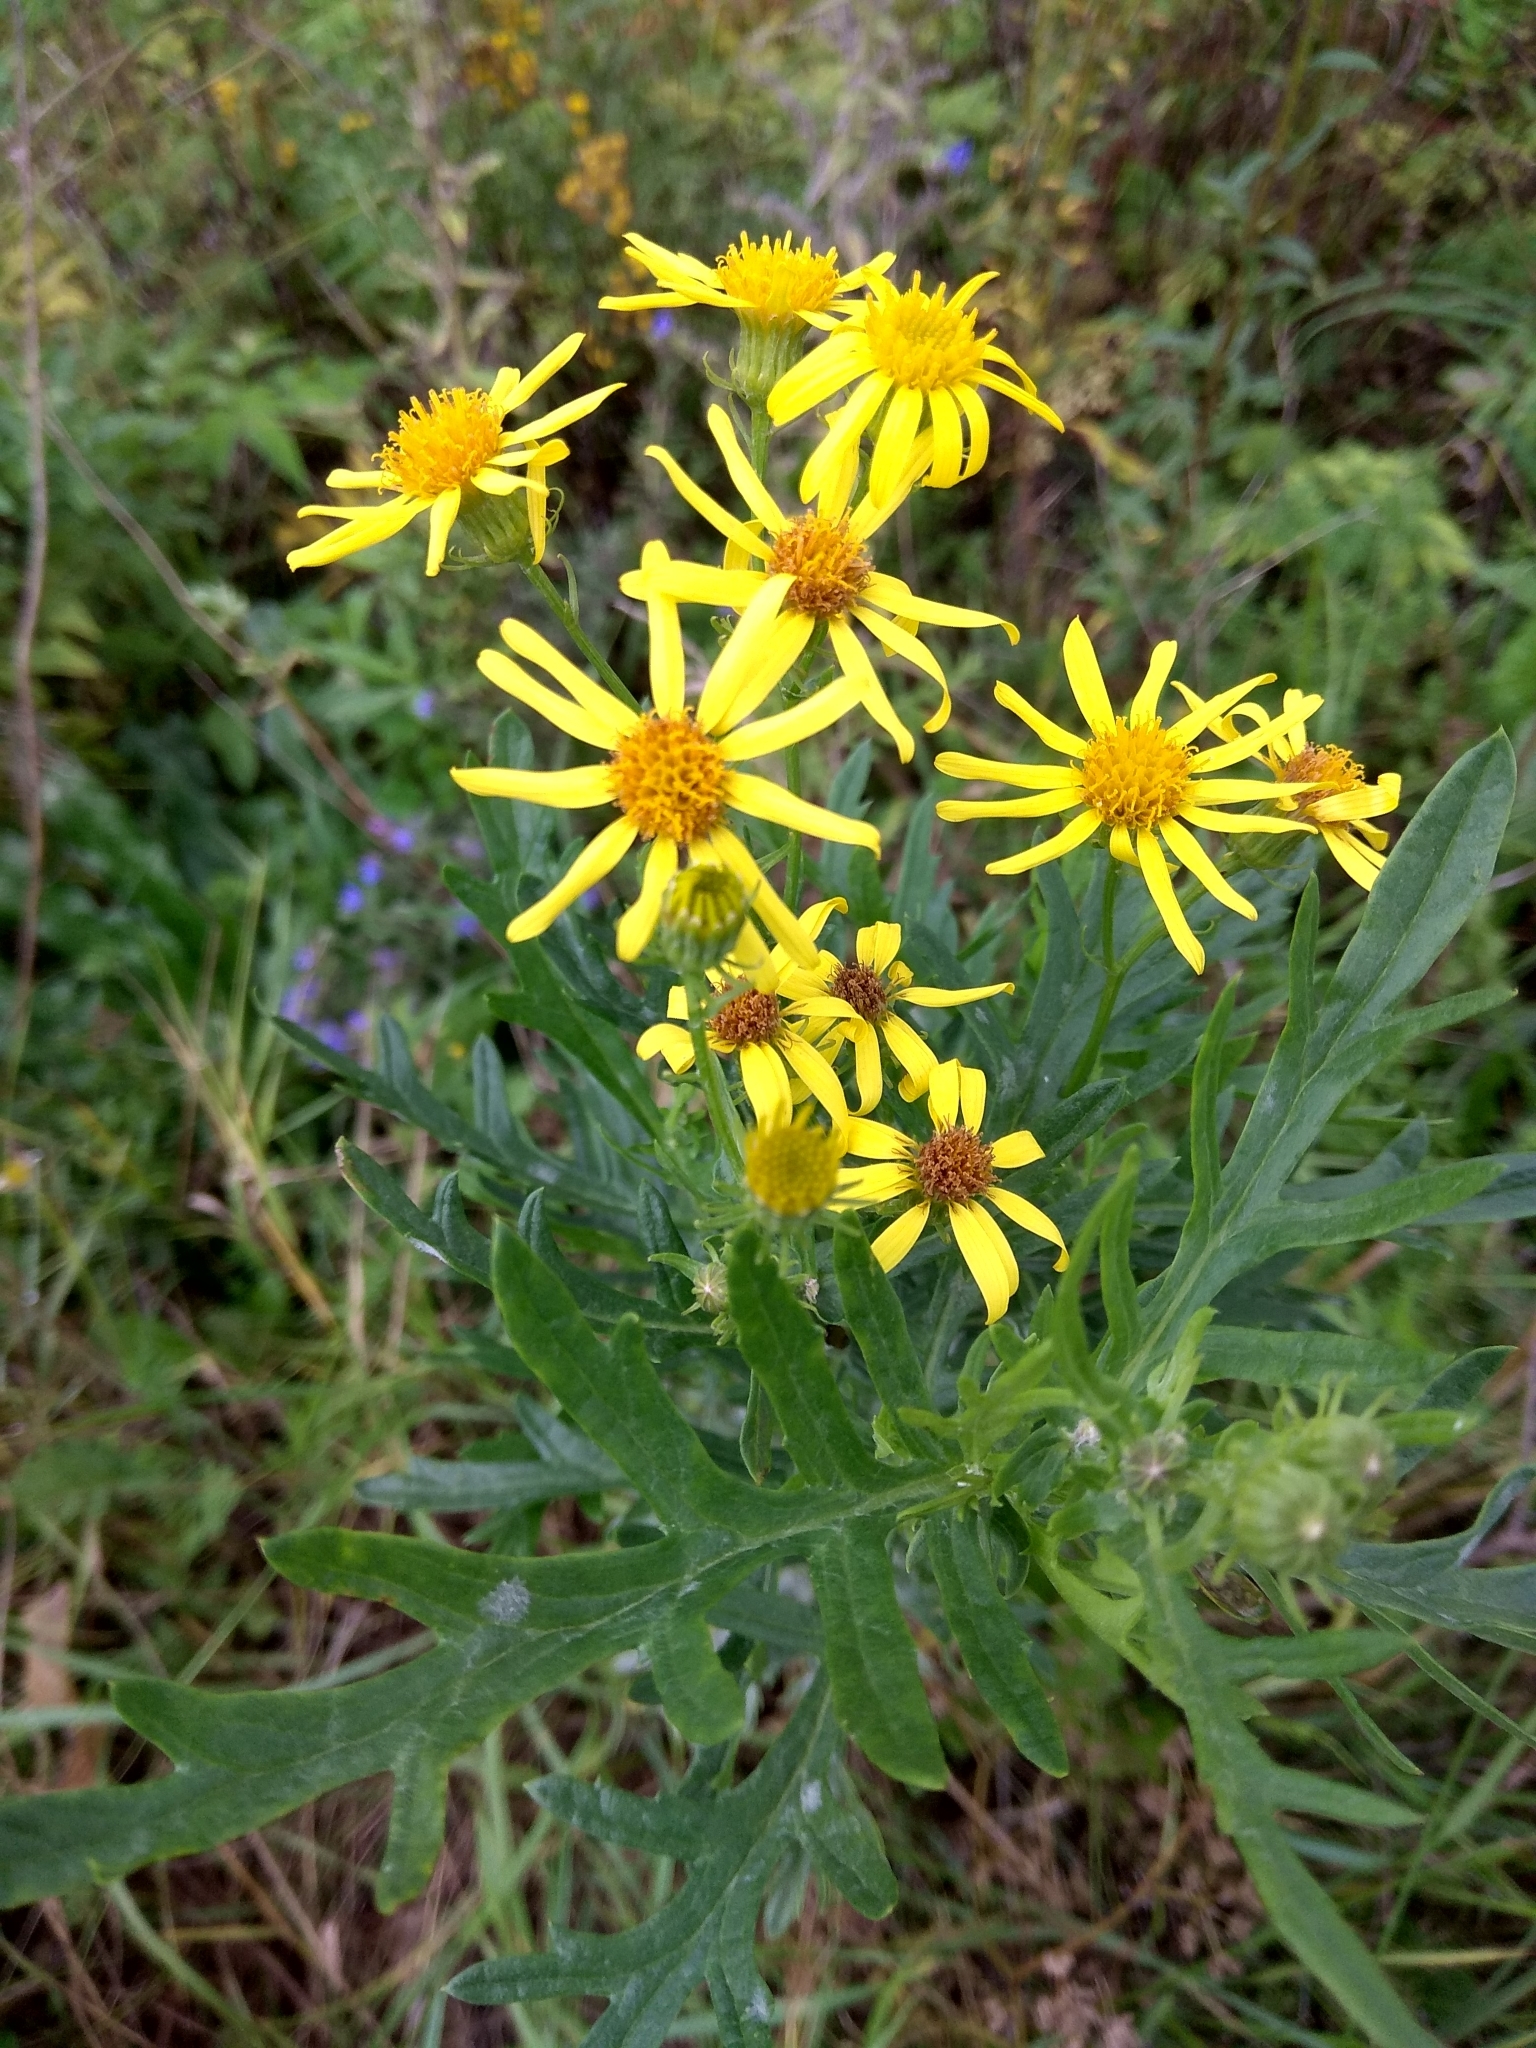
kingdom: Plantae
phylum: Tracheophyta
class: Magnoliopsida
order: Asterales
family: Asteraceae
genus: Jacobaea
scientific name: Jacobaea vulgaris
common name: Stinking willie
